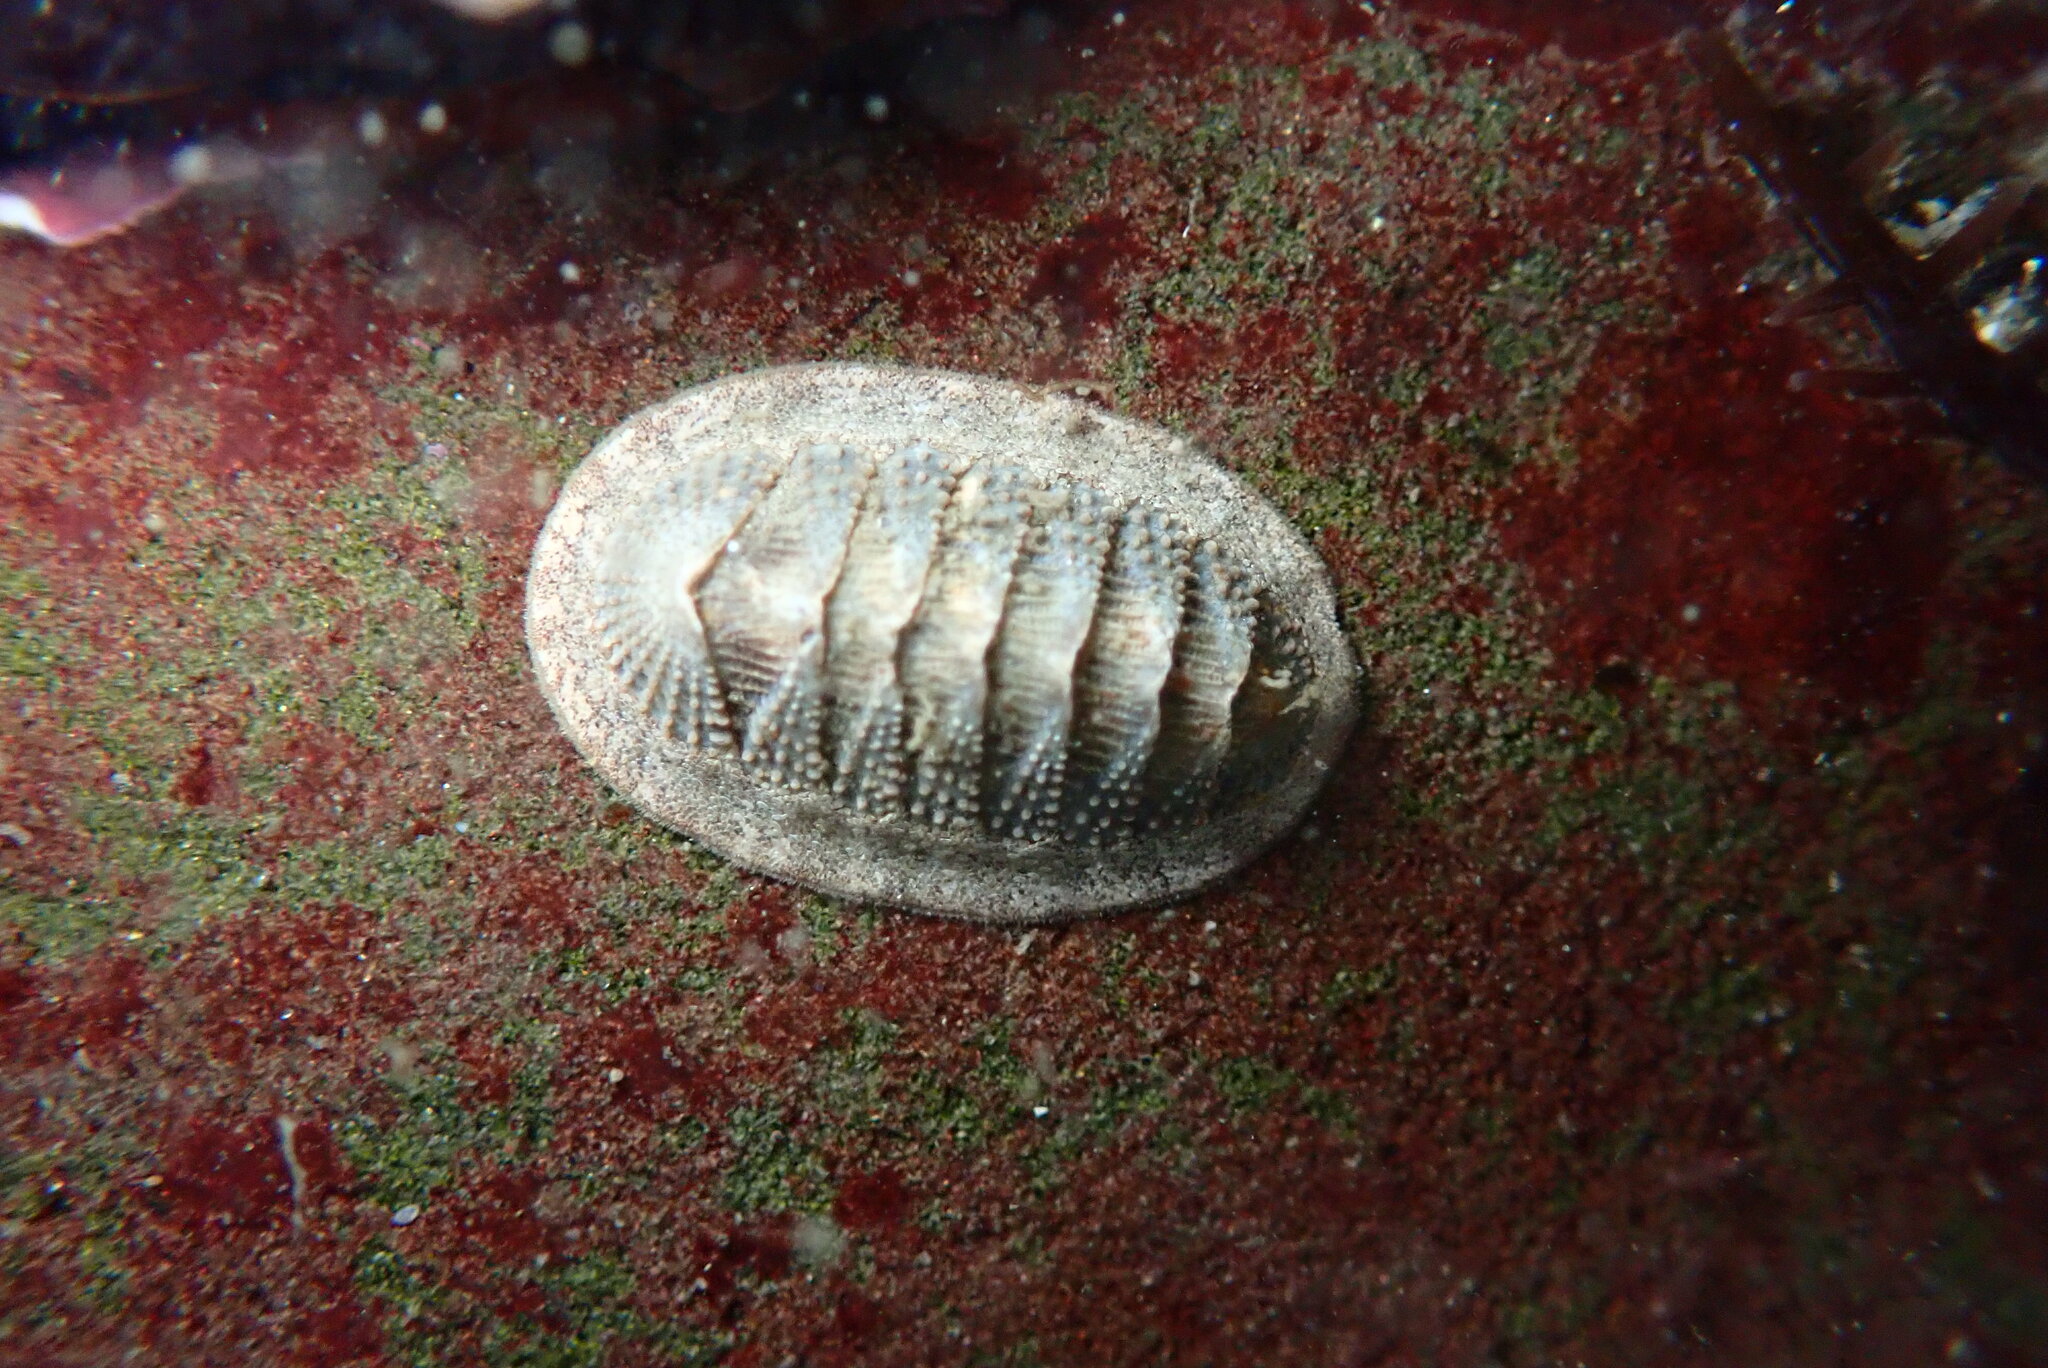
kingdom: Animalia
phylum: Mollusca
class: Polyplacophora
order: Chitonida
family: Ischnochitonidae
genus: Lepidozona
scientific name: Lepidozona cooperi
